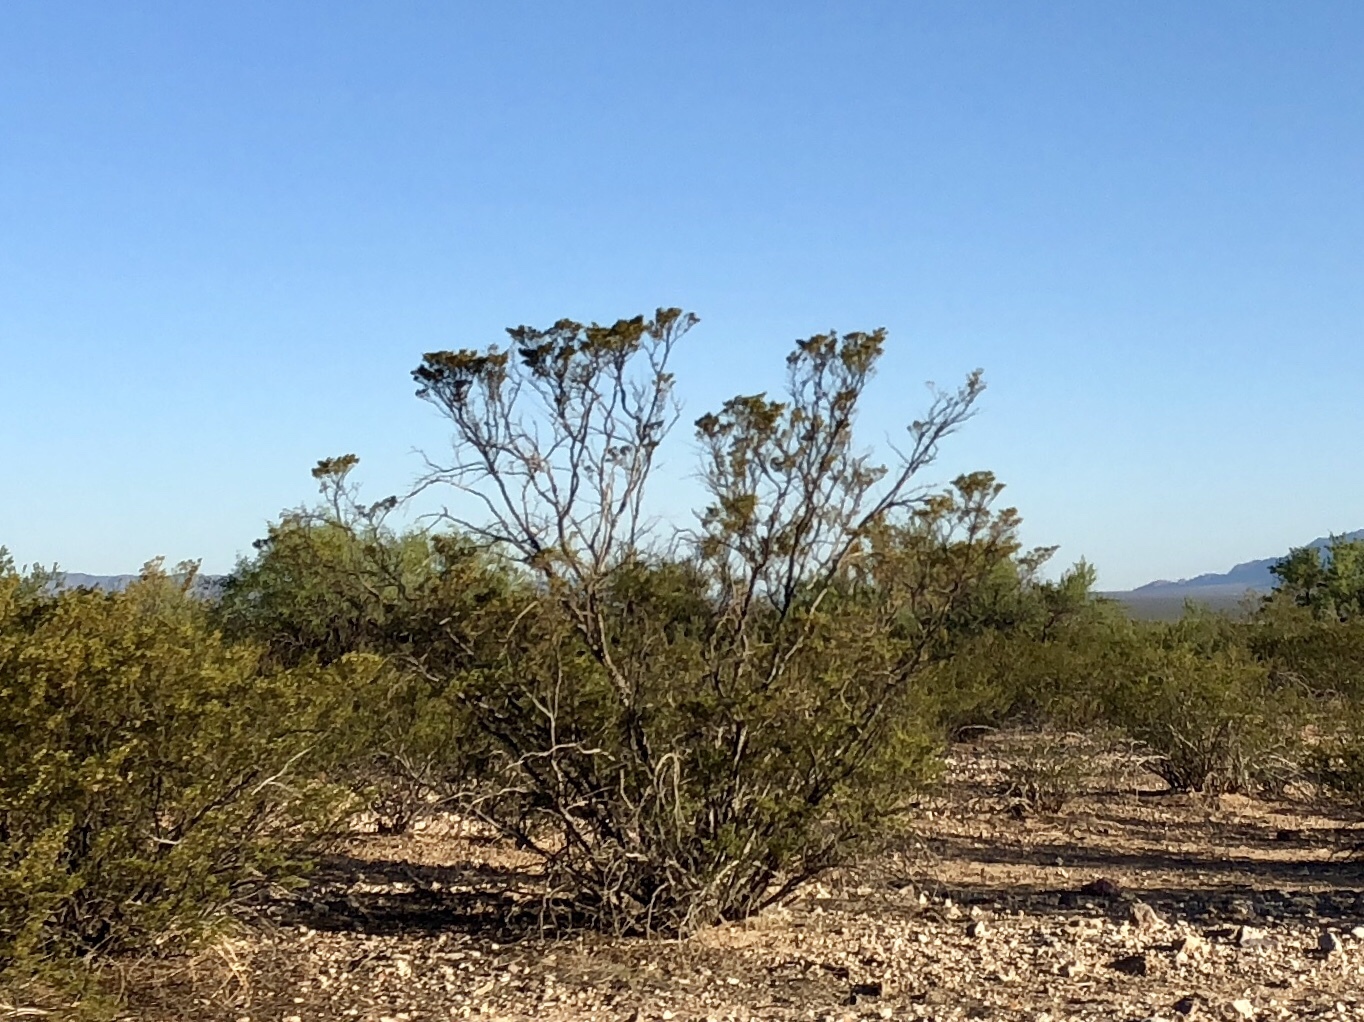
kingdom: Plantae
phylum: Tracheophyta
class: Magnoliopsida
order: Zygophyllales
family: Zygophyllaceae
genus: Larrea
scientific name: Larrea tridentata
